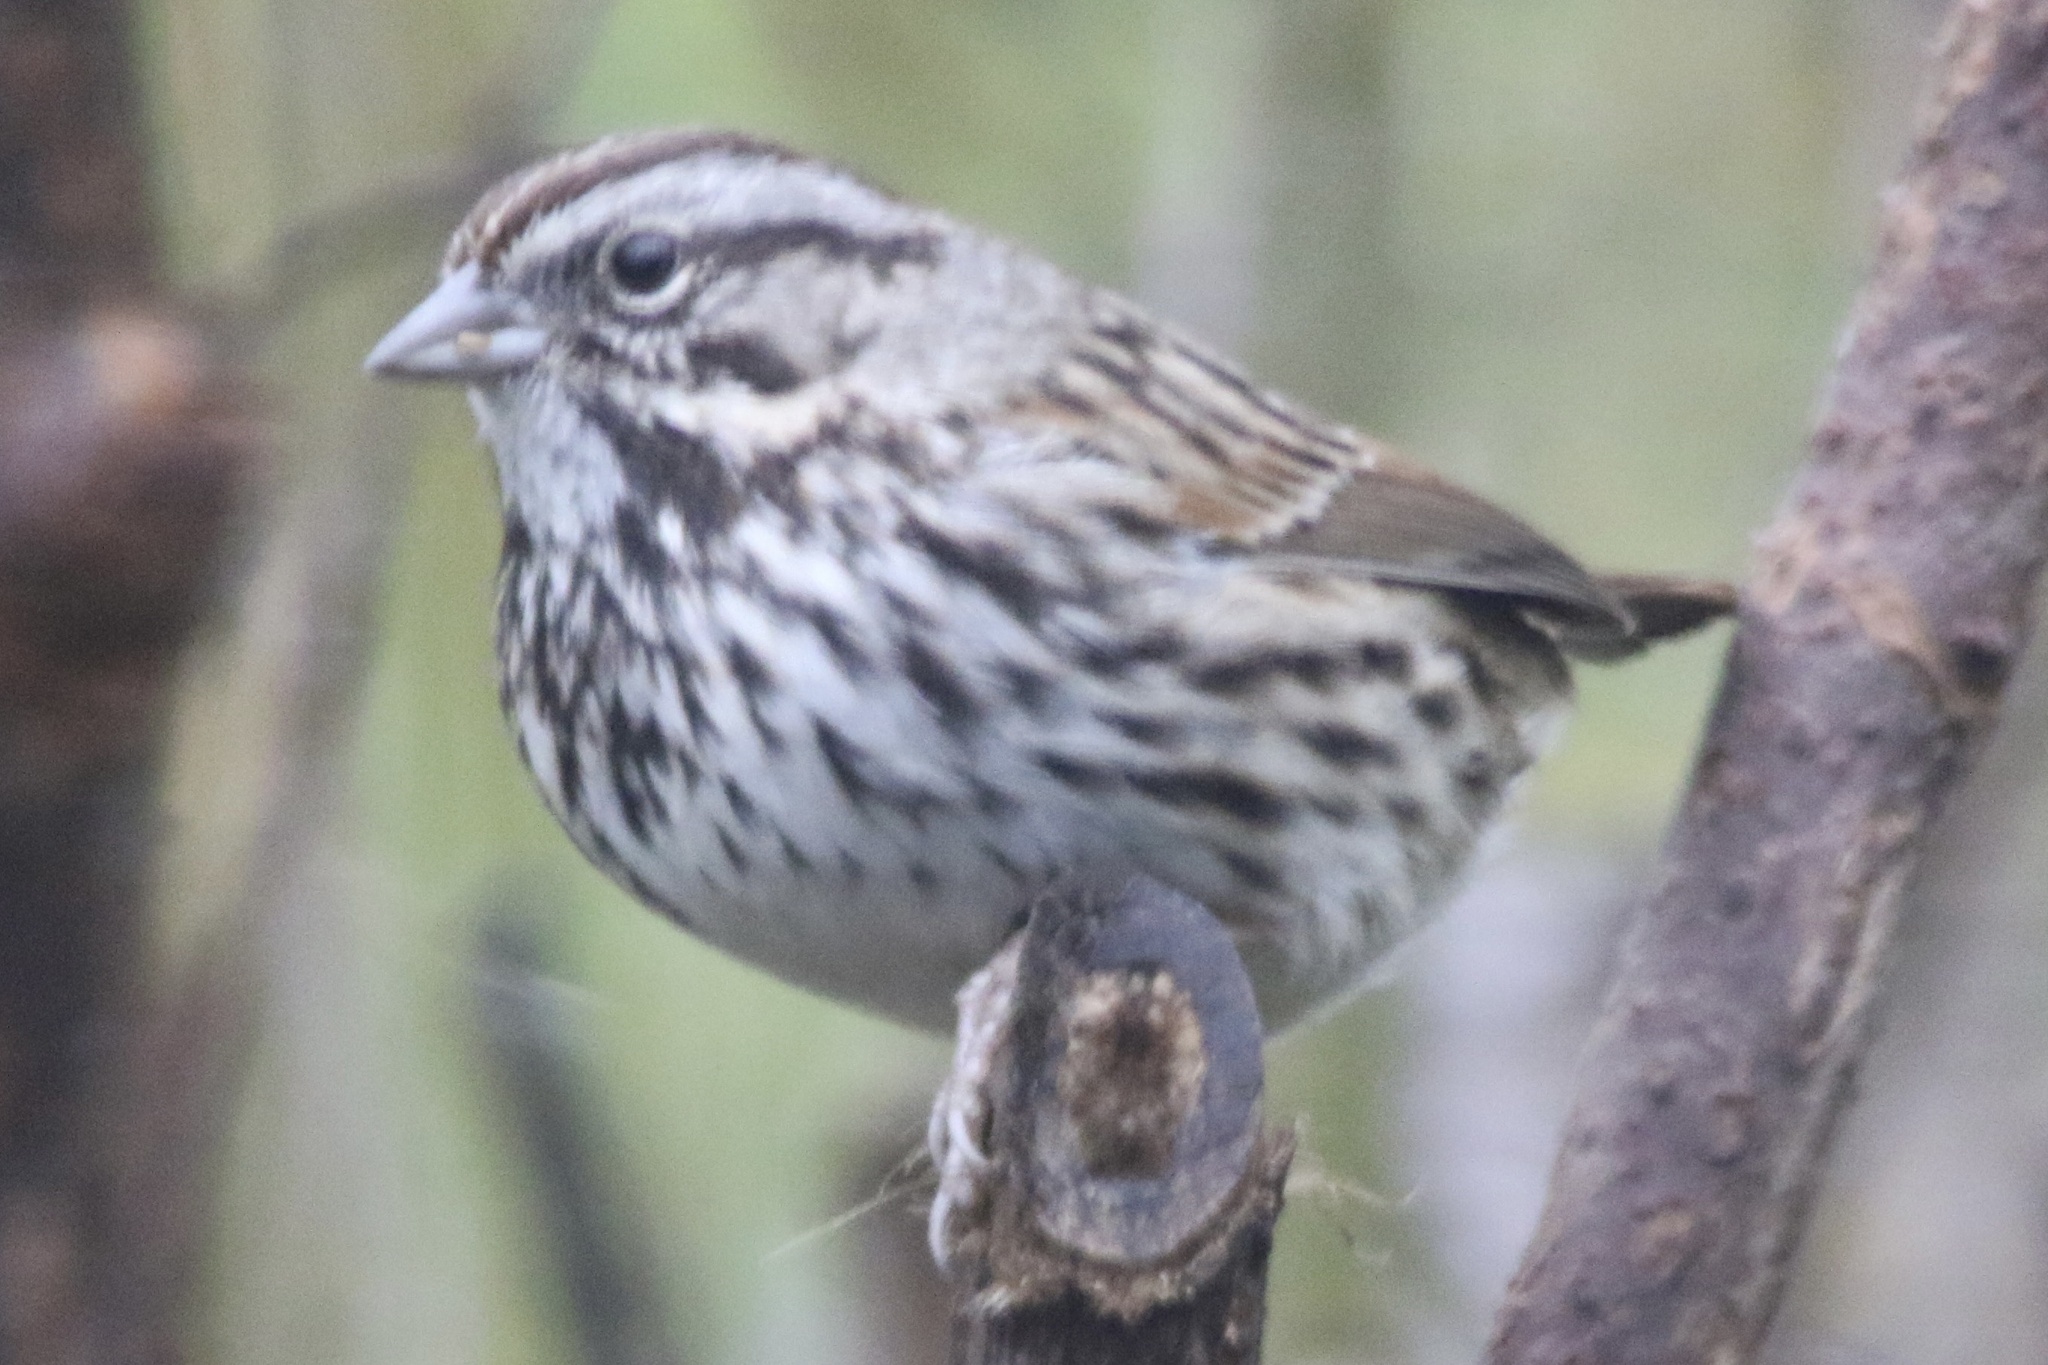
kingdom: Animalia
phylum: Chordata
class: Aves
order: Passeriformes
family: Passerellidae
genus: Melospiza
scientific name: Melospiza melodia
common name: Song sparrow
